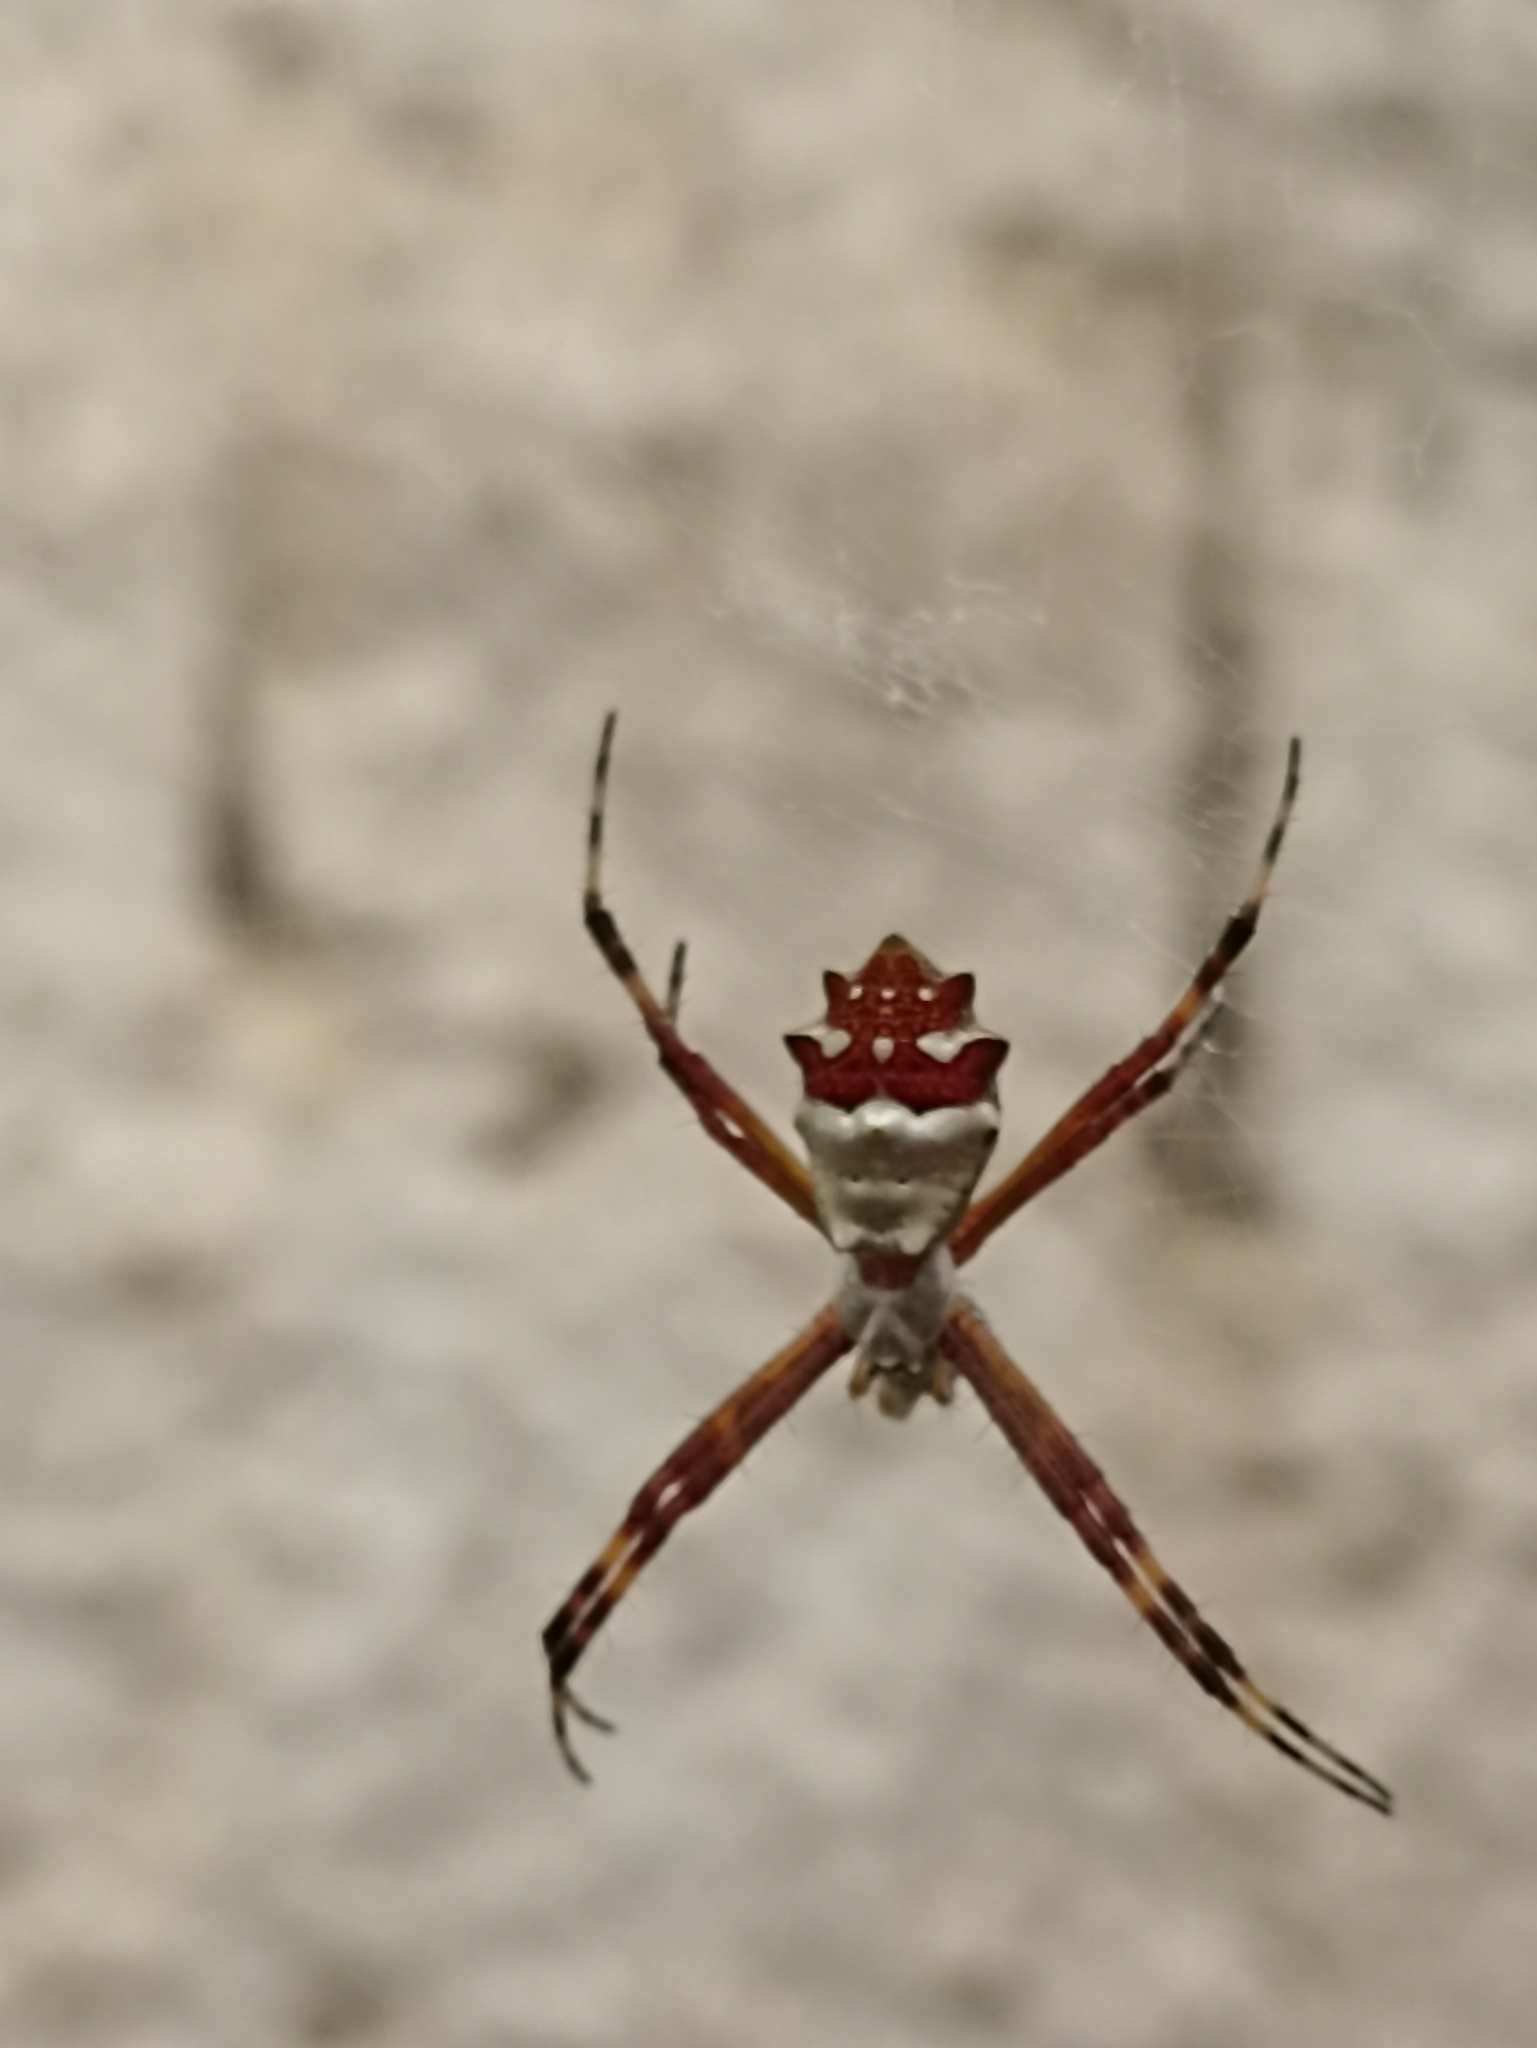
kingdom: Animalia
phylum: Arthropoda
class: Arachnida
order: Araneae
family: Araneidae
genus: Argiope
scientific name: Argiope argentata
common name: Orb weavers
